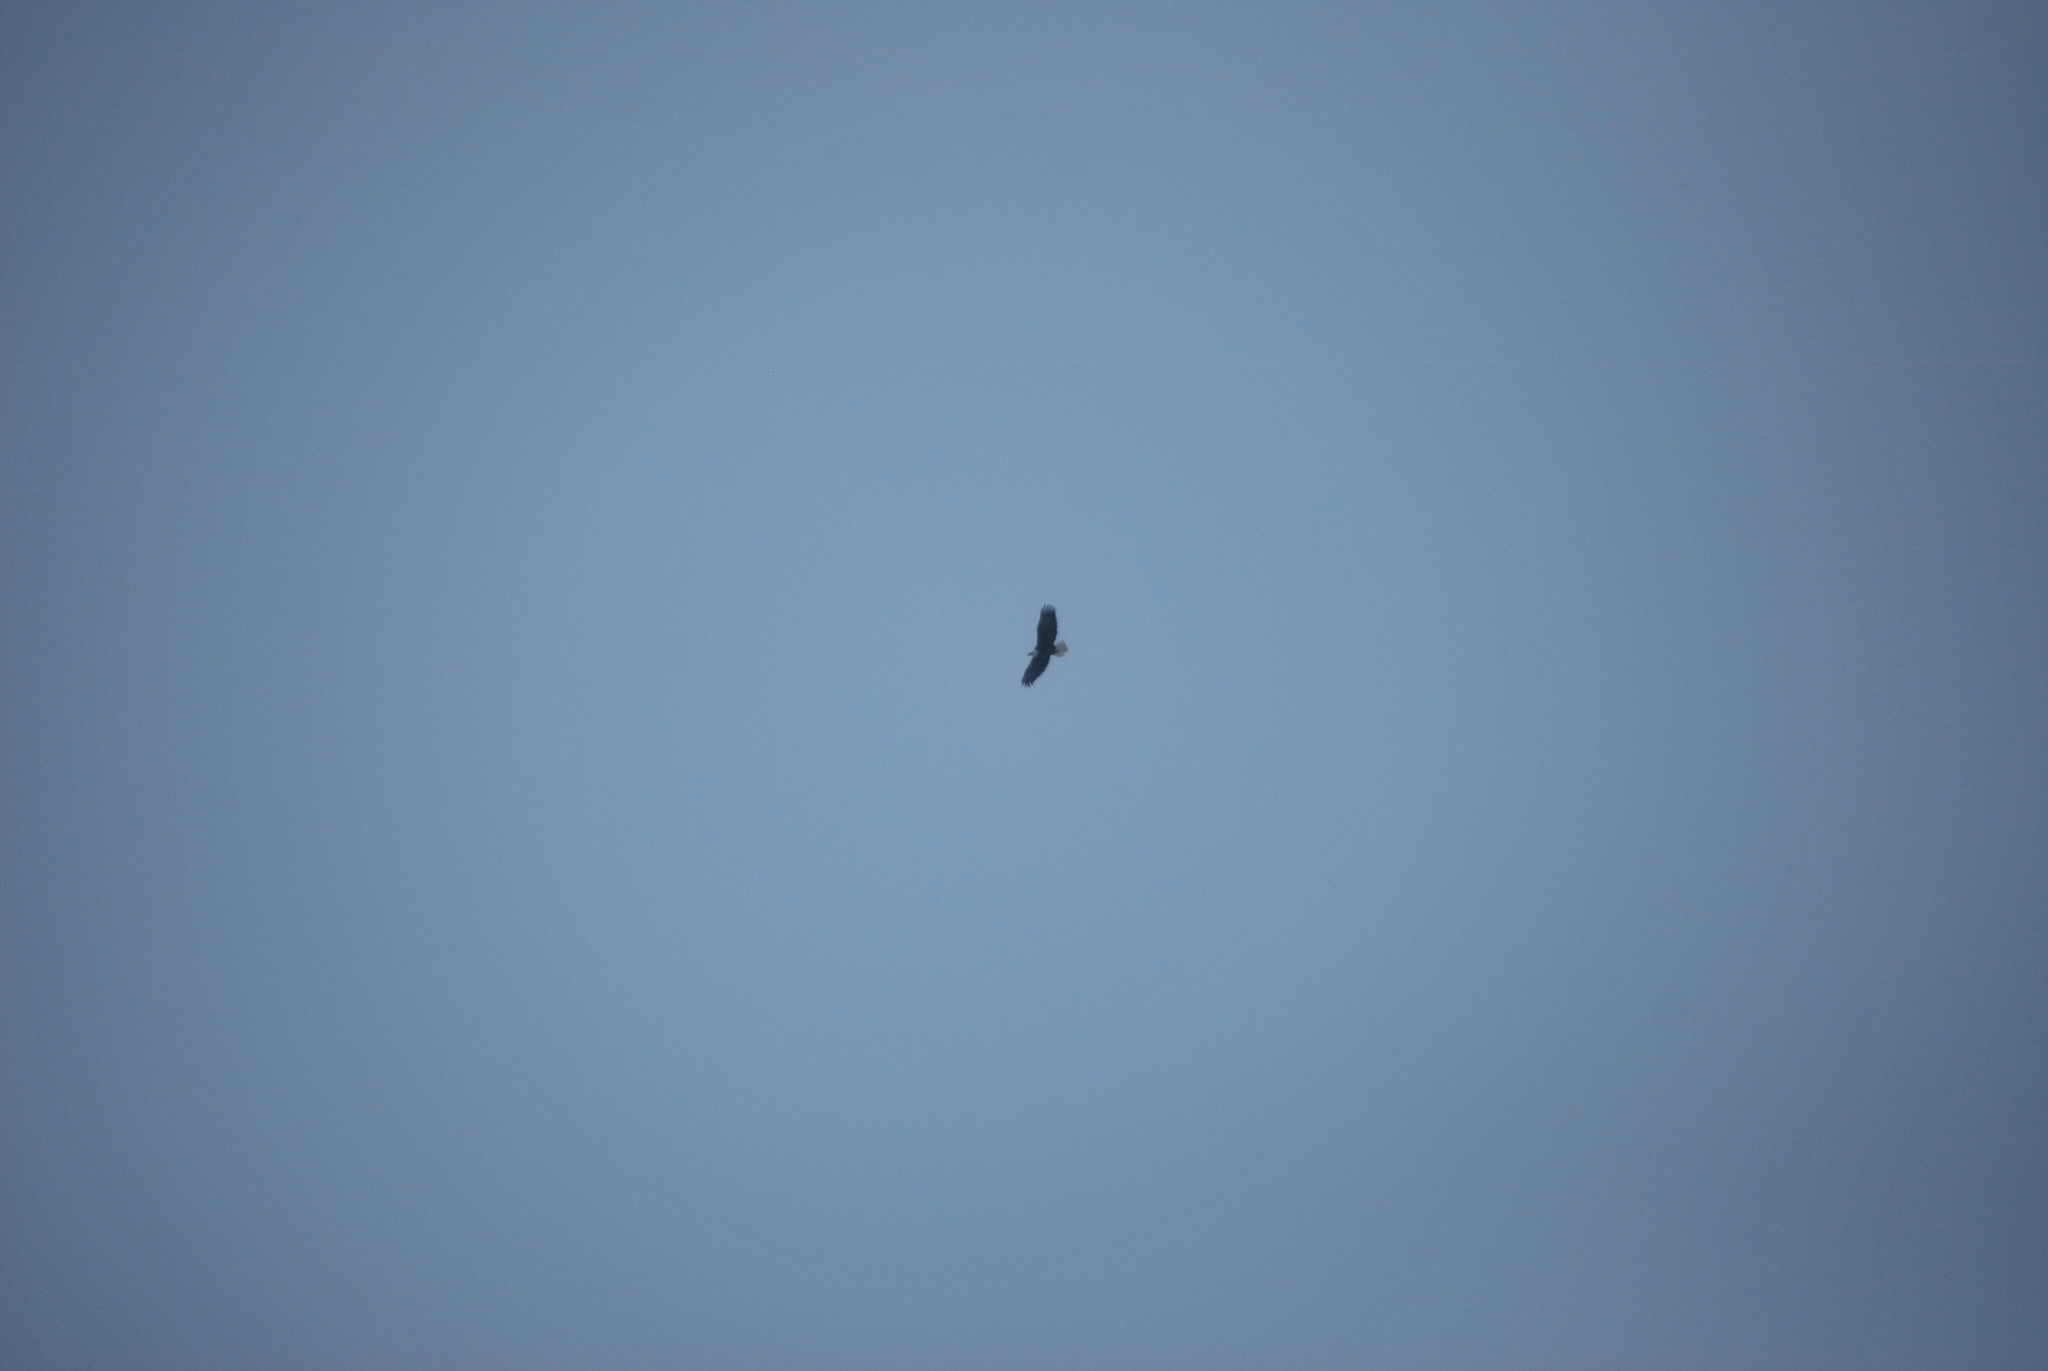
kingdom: Animalia
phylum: Chordata
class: Aves
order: Accipitriformes
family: Accipitridae
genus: Haliaeetus
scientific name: Haliaeetus leucocephalus
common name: Bald eagle
